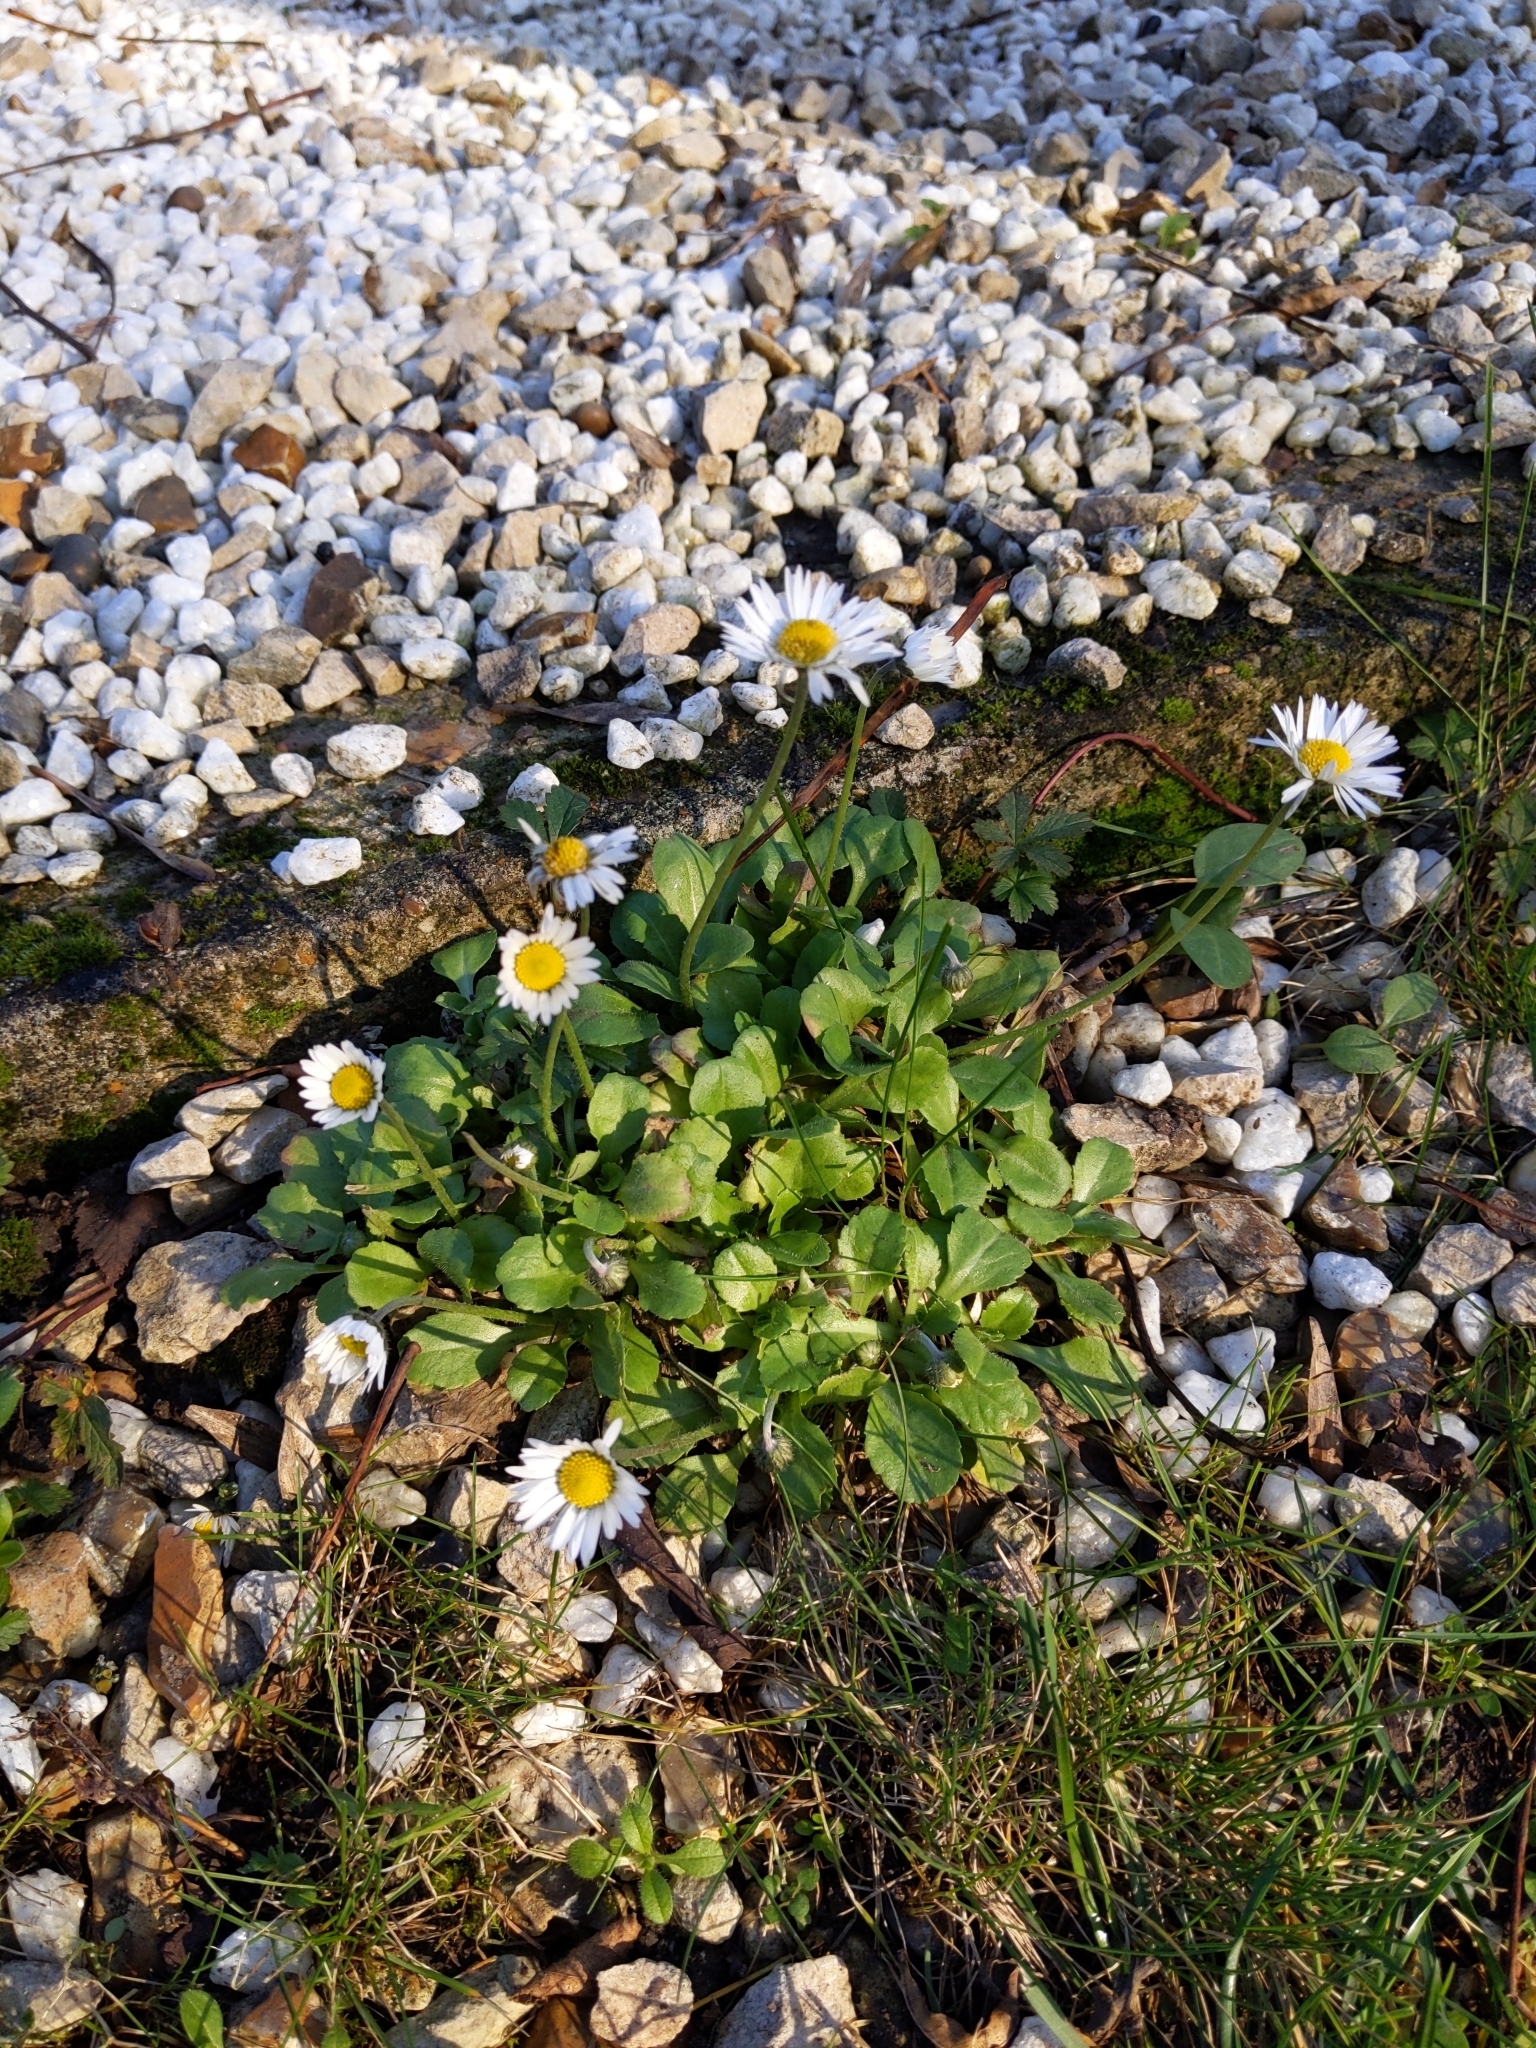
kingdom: Plantae
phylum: Tracheophyta
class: Magnoliopsida
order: Asterales
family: Asteraceae
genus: Bellis
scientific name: Bellis perennis
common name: Lawndaisy
